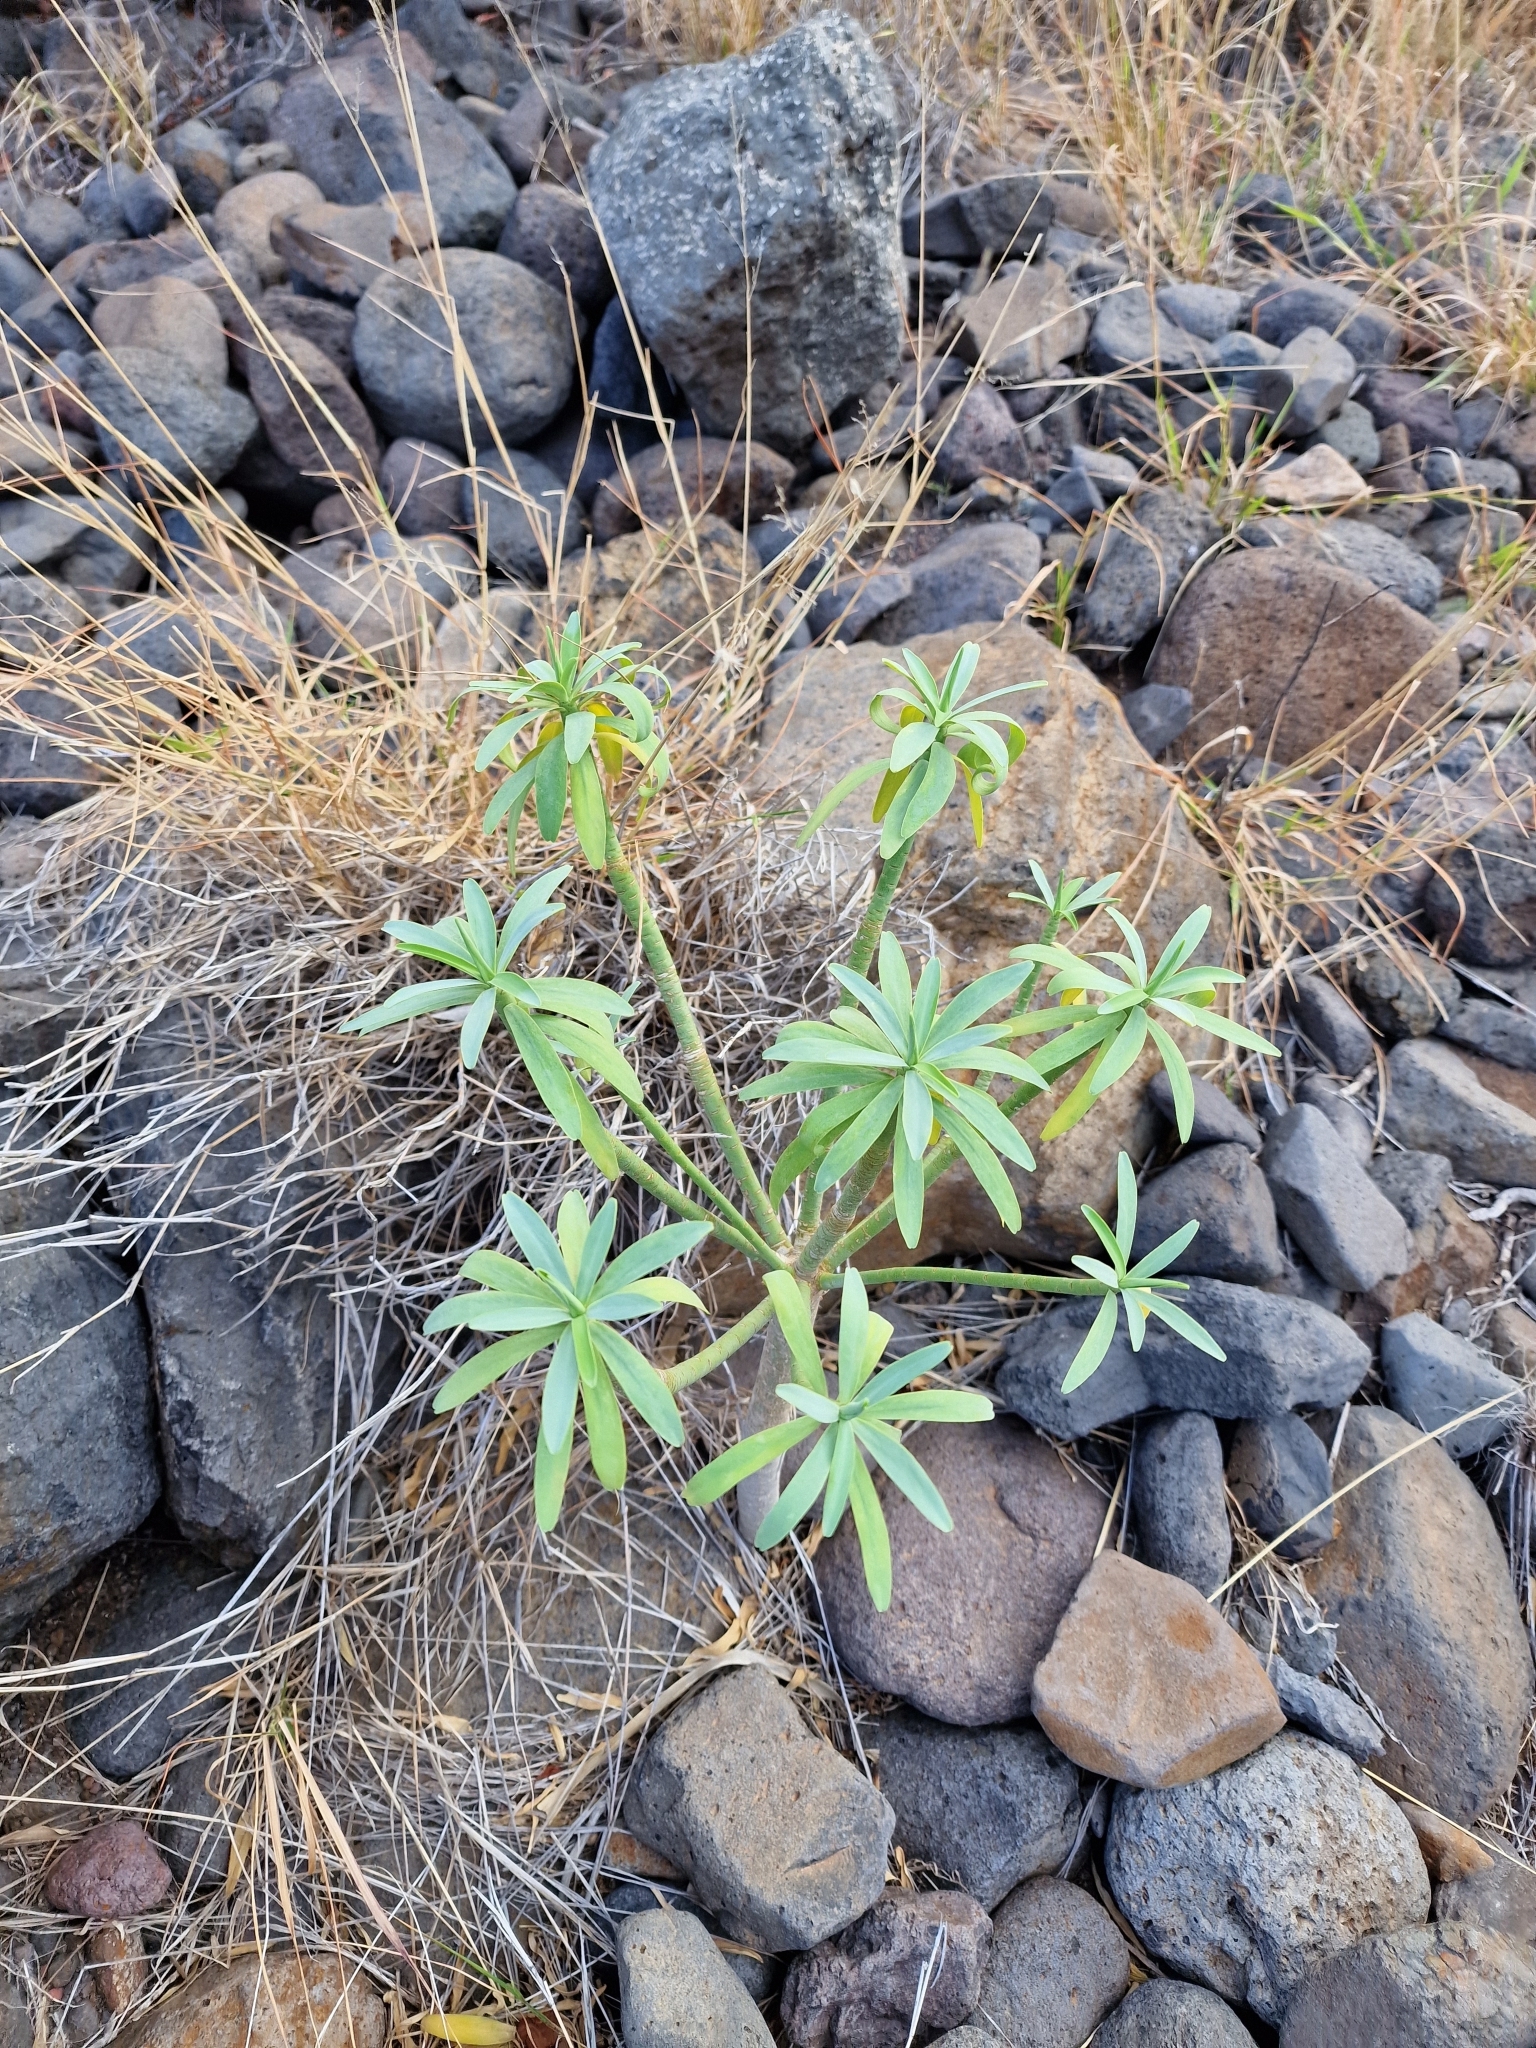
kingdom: Plantae
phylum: Tracheophyta
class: Magnoliopsida
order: Malpighiales
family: Euphorbiaceae
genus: Euphorbia
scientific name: Euphorbia lamarckii
